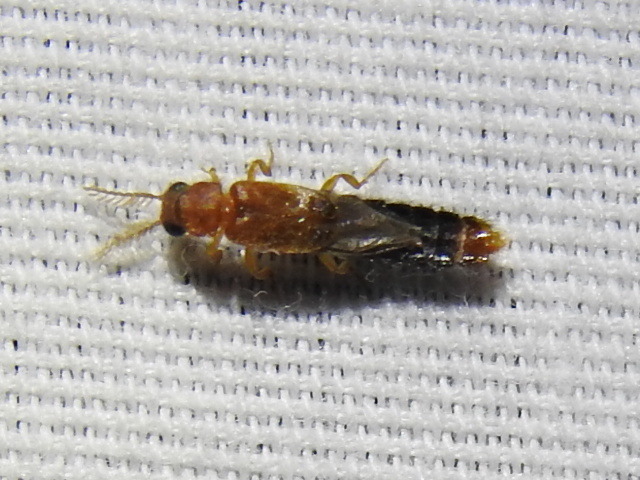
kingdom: Animalia
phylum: Arthropoda
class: Insecta
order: Coleoptera
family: Phengodidae
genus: Distremocephalus
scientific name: Distremocephalus texanus
